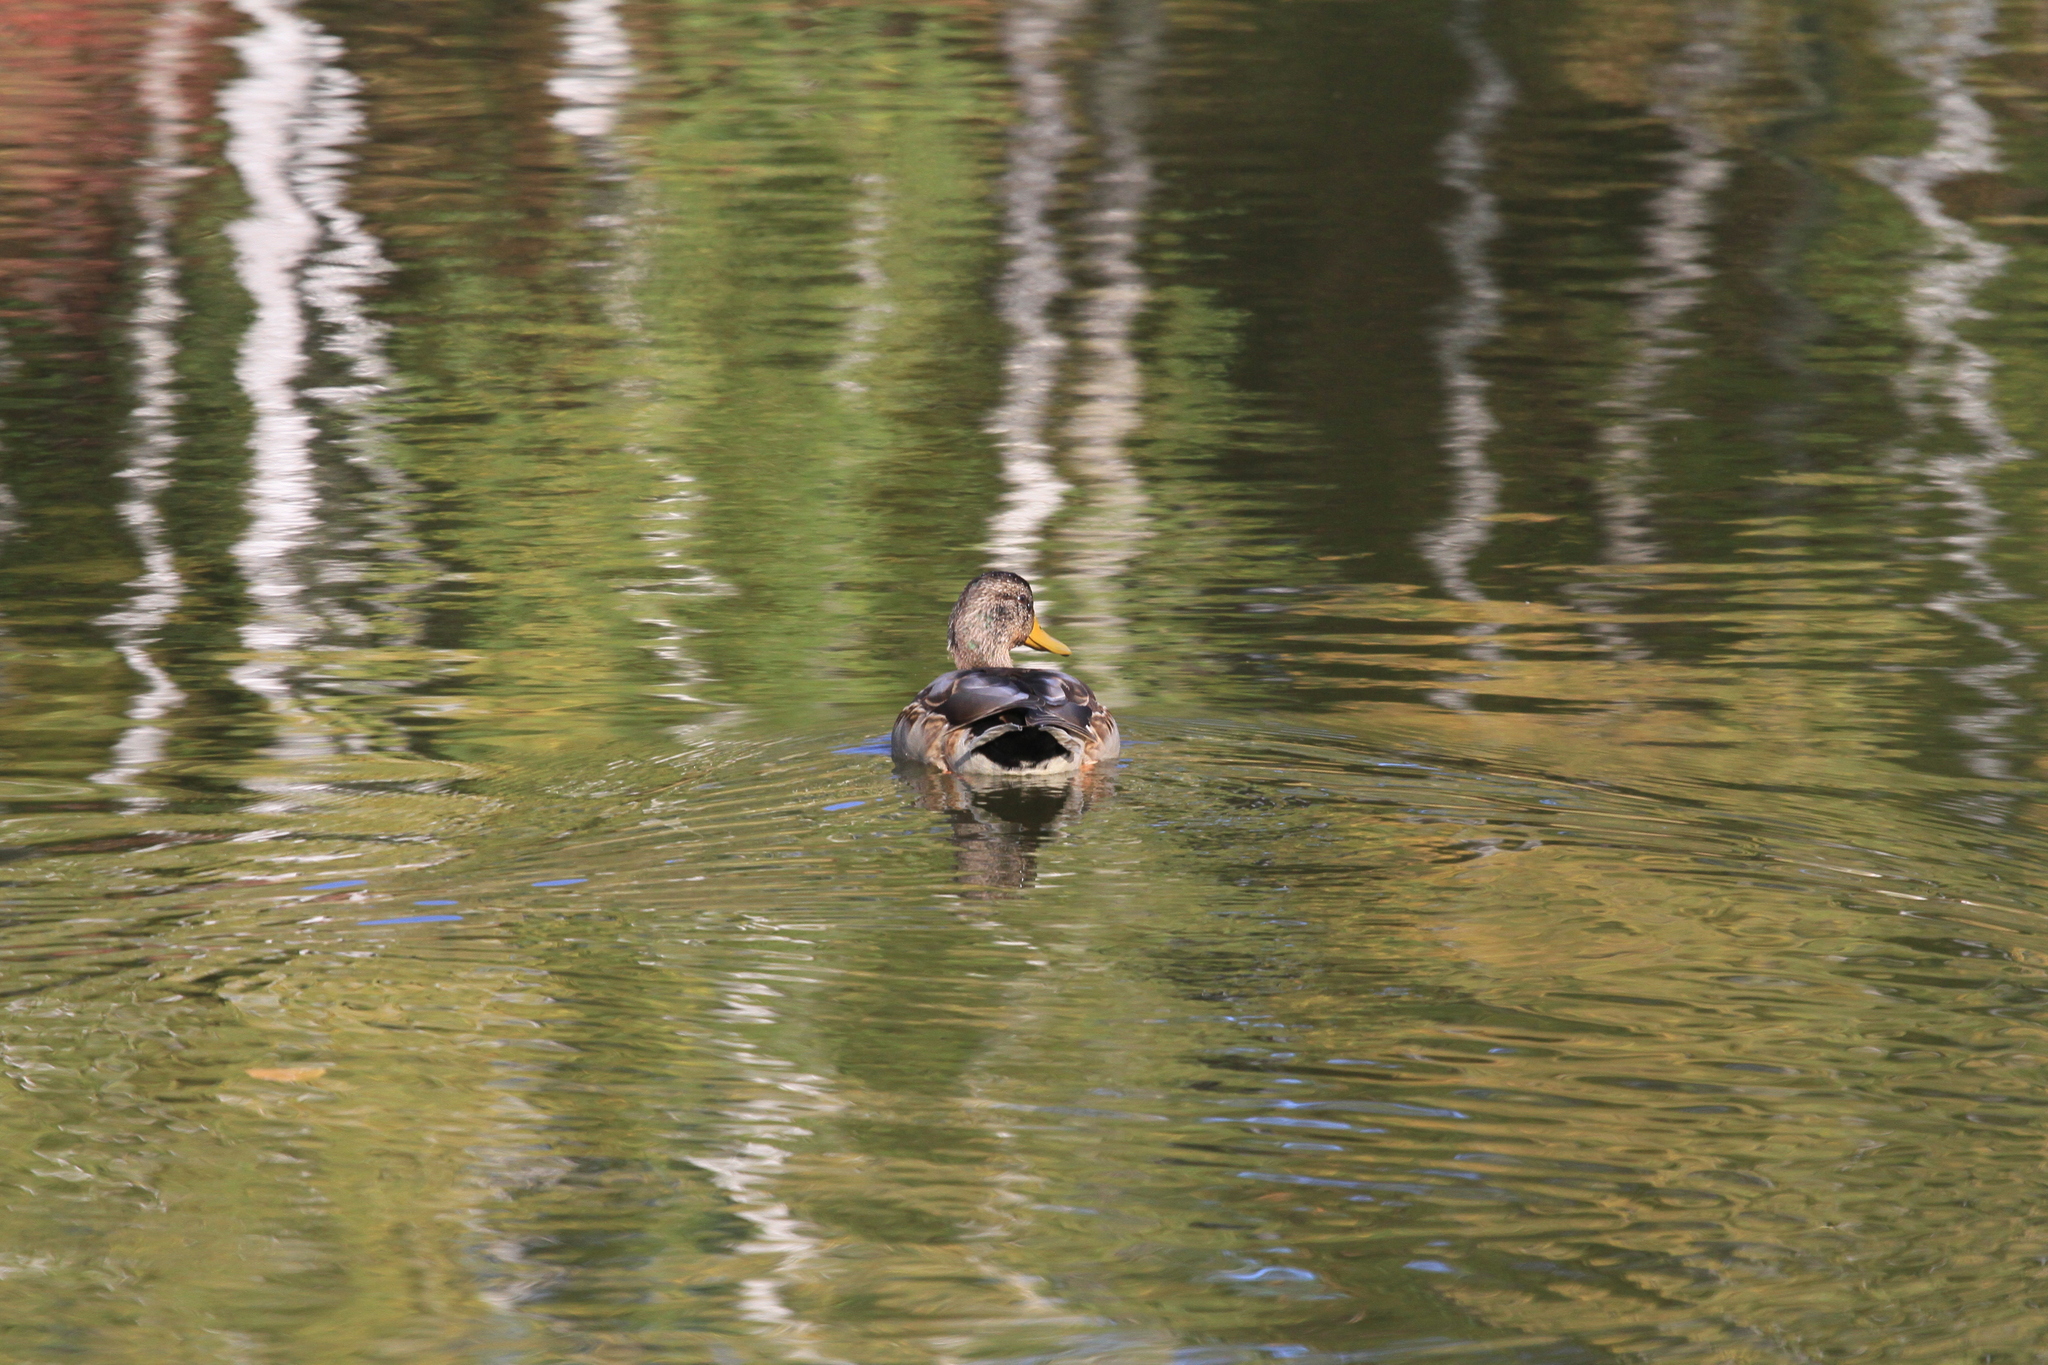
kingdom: Animalia
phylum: Chordata
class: Aves
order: Anseriformes
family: Anatidae
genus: Anas
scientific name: Anas platyrhynchos
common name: Mallard
